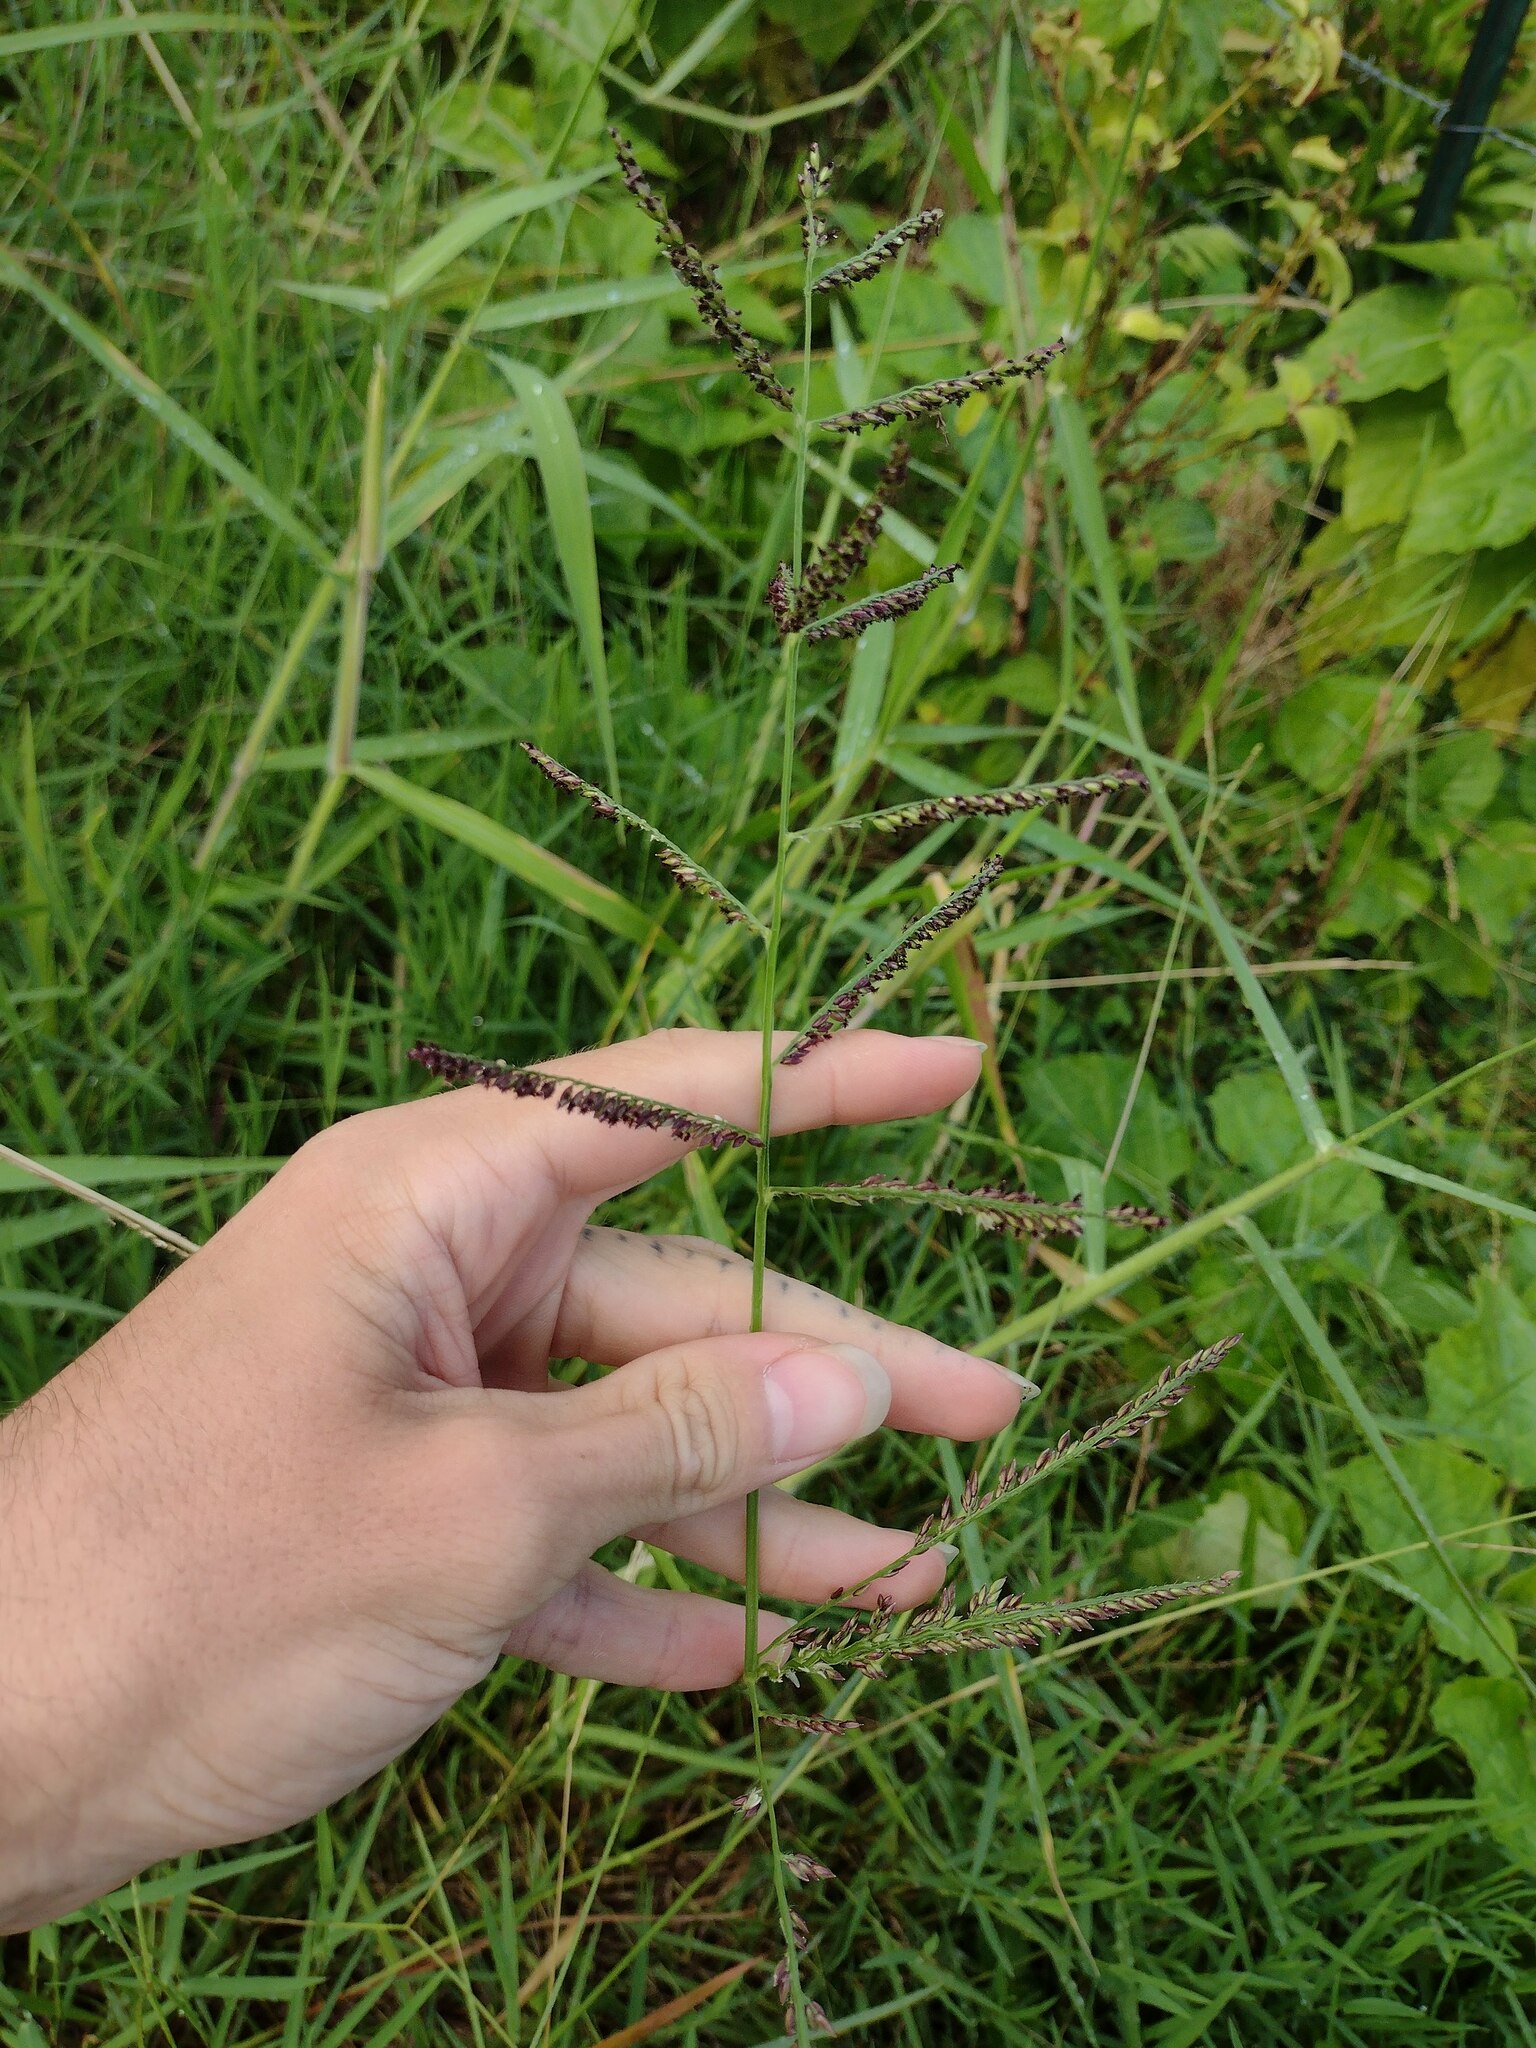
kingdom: Plantae
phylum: Tracheophyta
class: Liliopsida
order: Poales
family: Poaceae
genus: Urochloa
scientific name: Urochloa mutica
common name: Para grass
